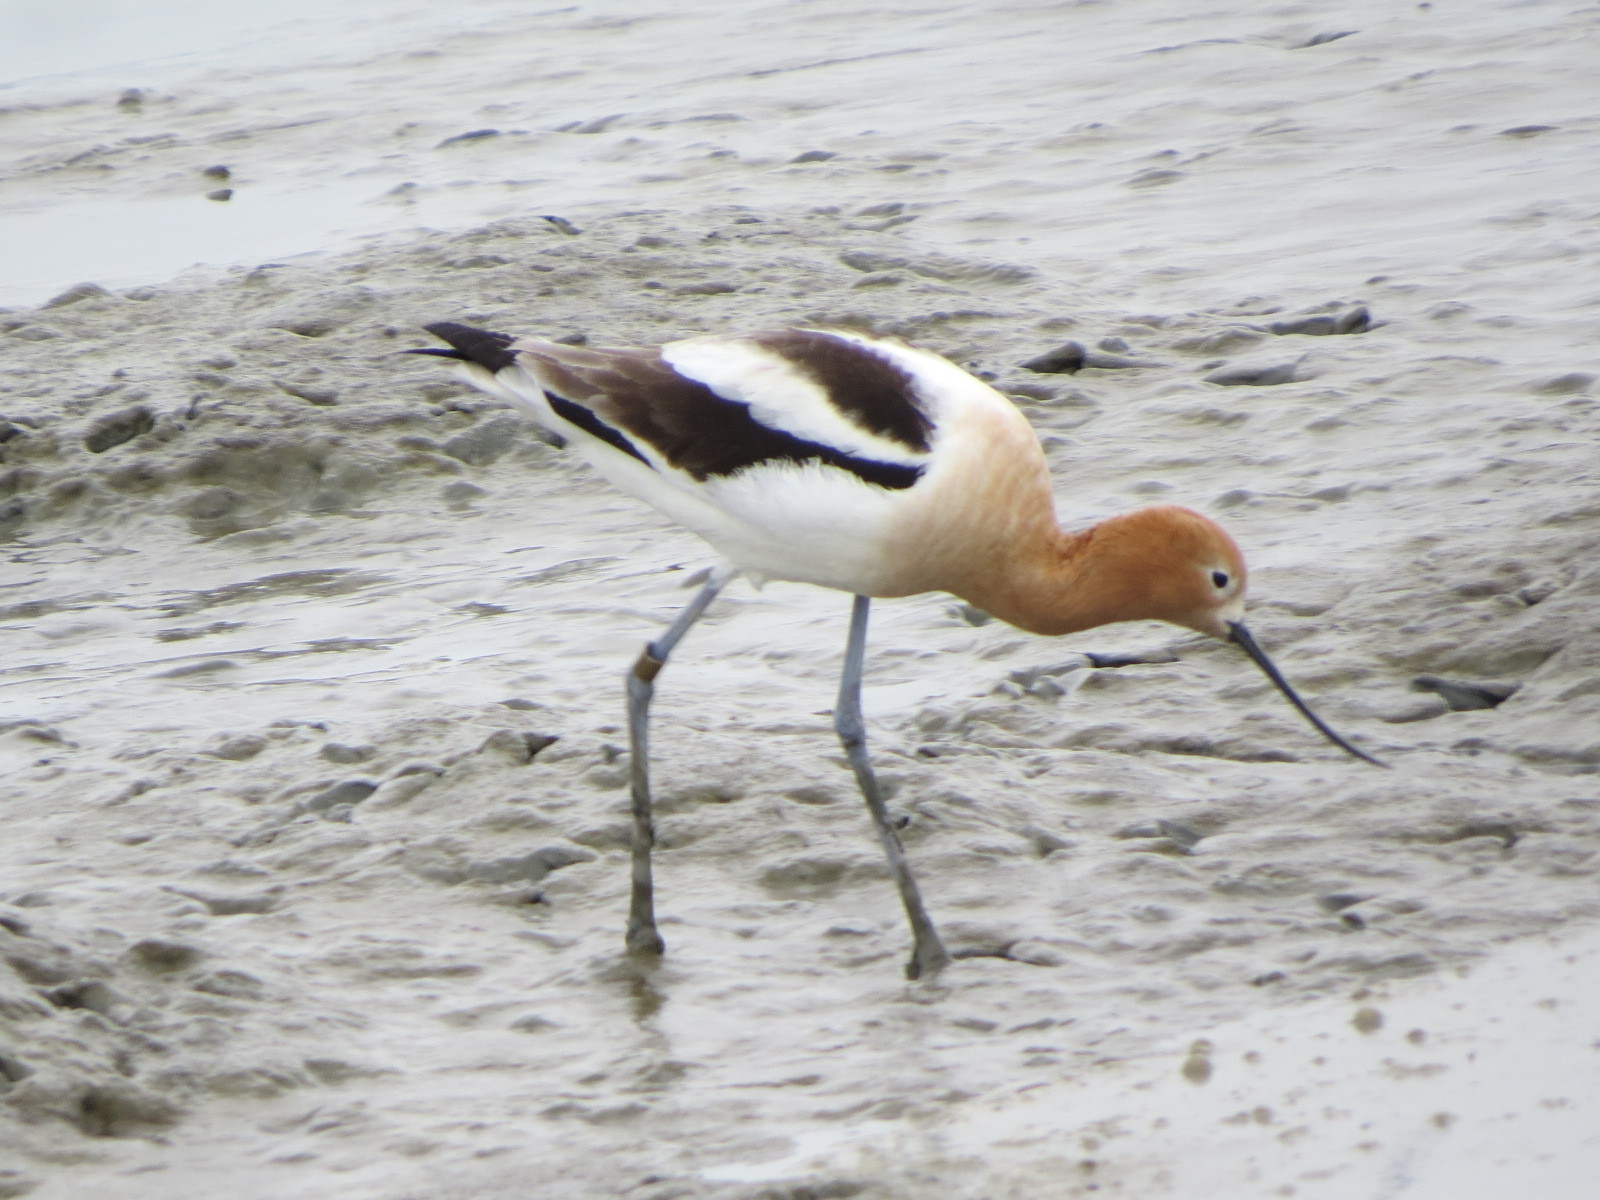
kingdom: Animalia
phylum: Chordata
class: Aves
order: Charadriiformes
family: Recurvirostridae
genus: Recurvirostra
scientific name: Recurvirostra americana
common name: American avocet
